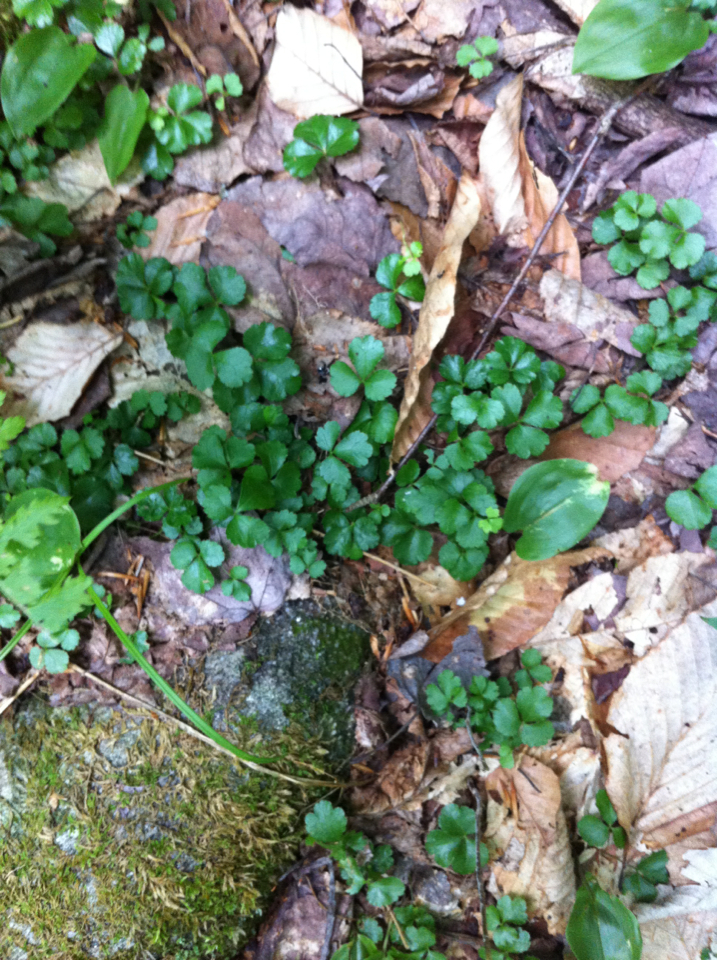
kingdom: Plantae
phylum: Tracheophyta
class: Magnoliopsida
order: Ranunculales
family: Ranunculaceae
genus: Coptis
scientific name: Coptis trifolia
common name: Canker-root
